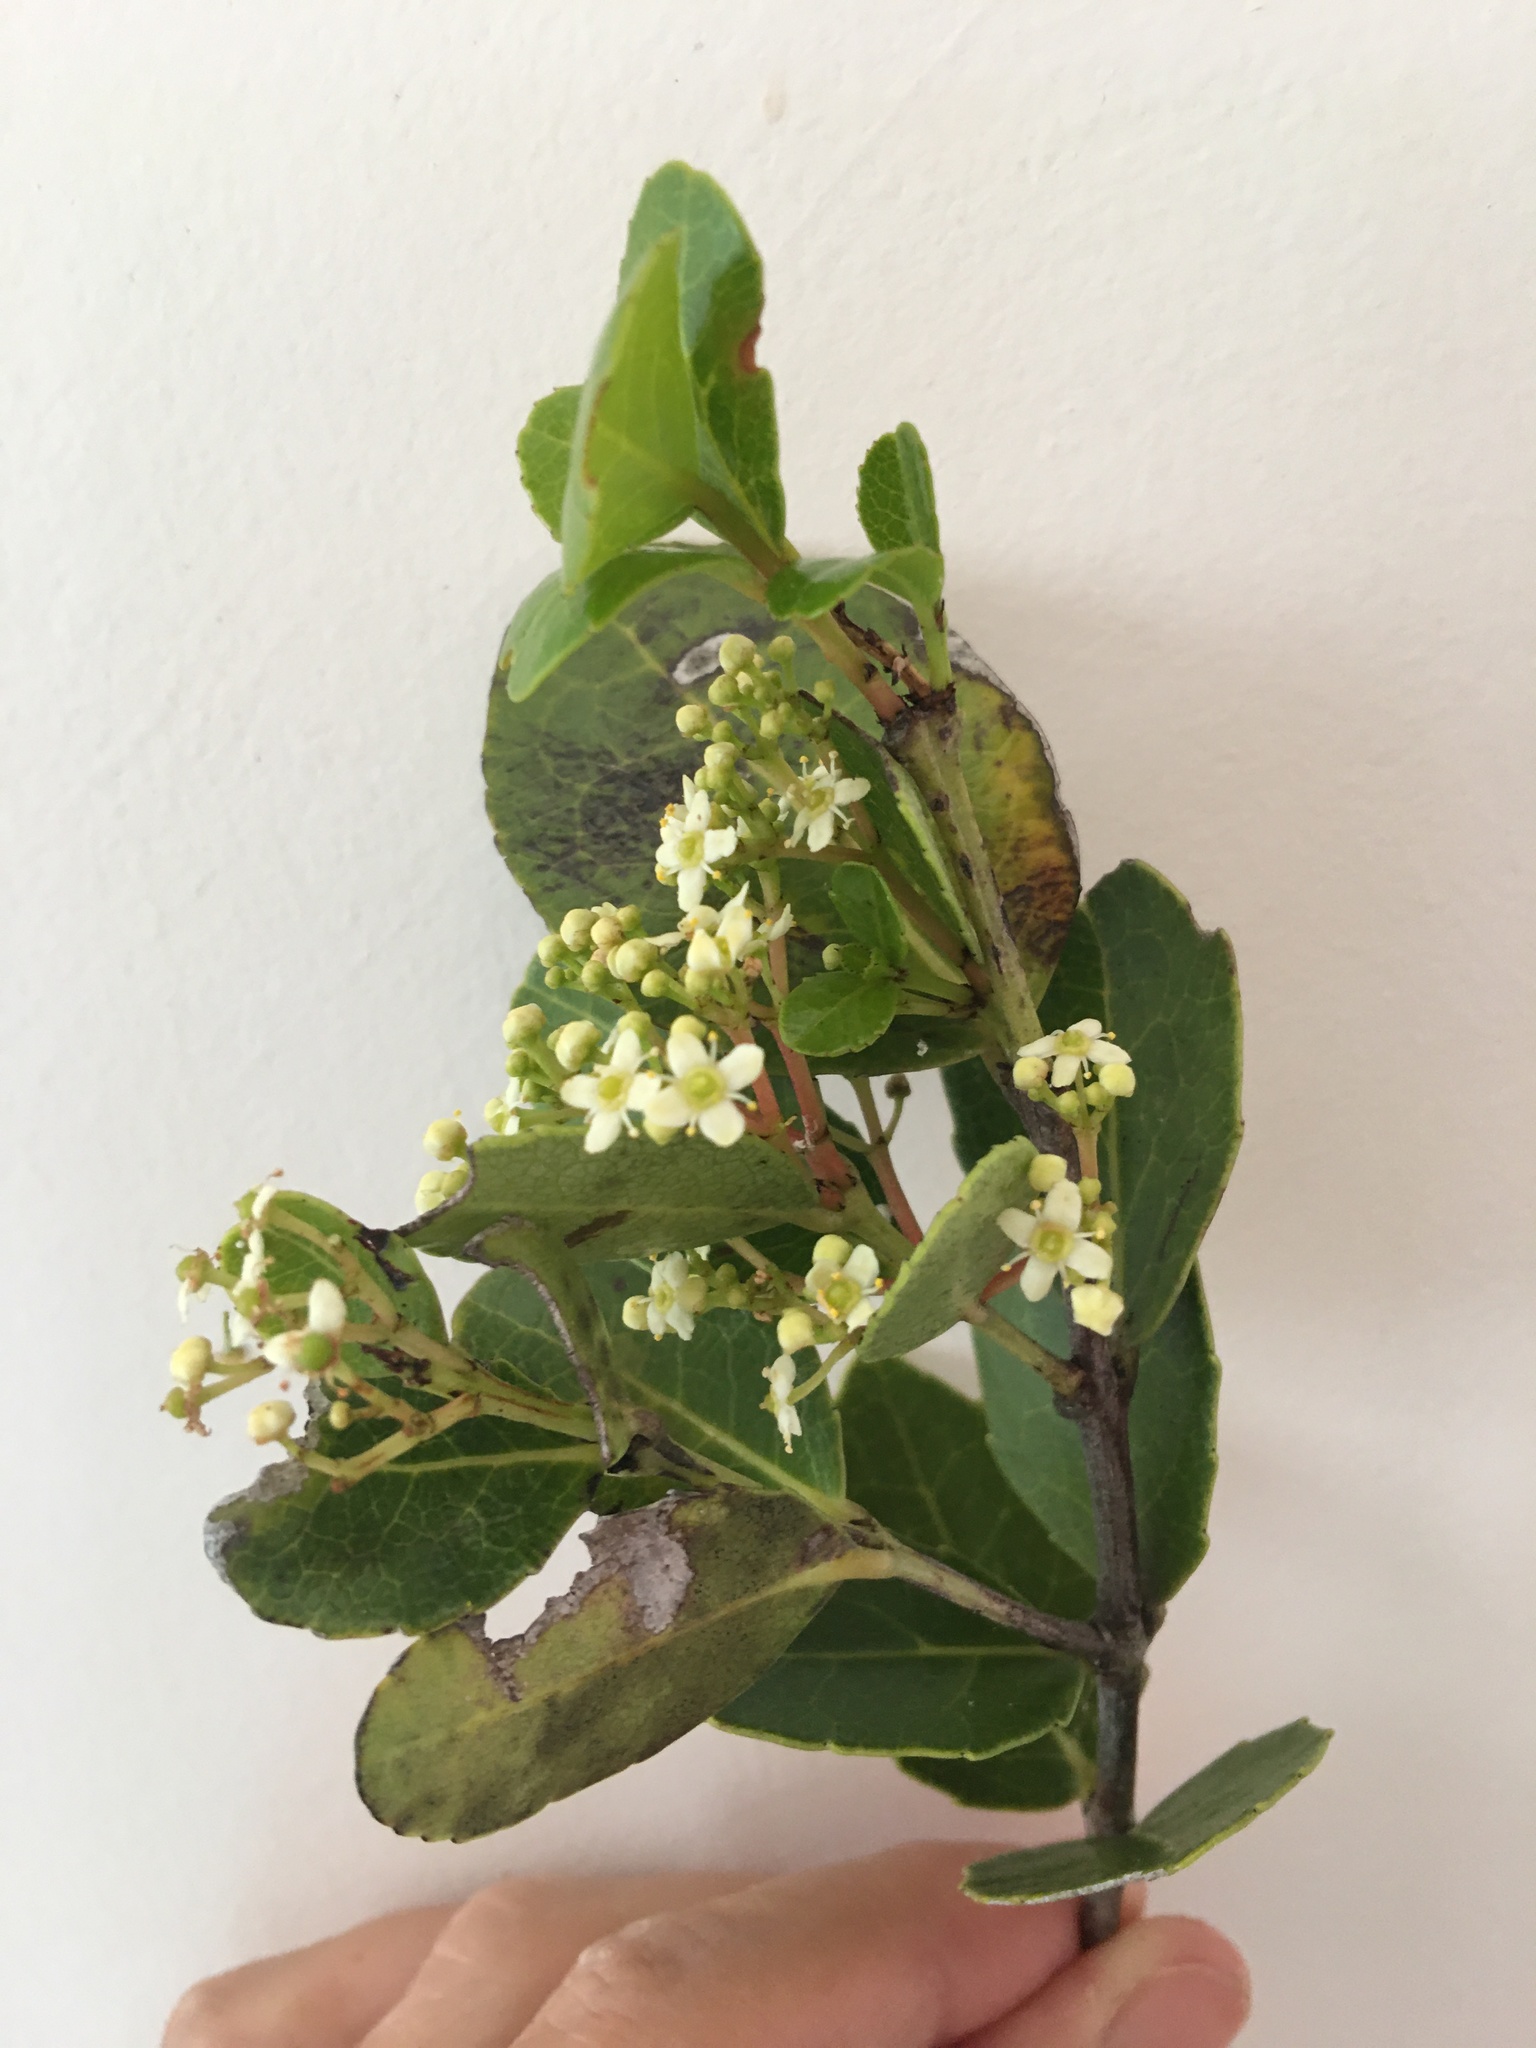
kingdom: Plantae
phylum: Tracheophyta
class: Magnoliopsida
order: Celastrales
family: Celastraceae
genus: Cassine
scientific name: Cassine peragua
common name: Cape saffron
